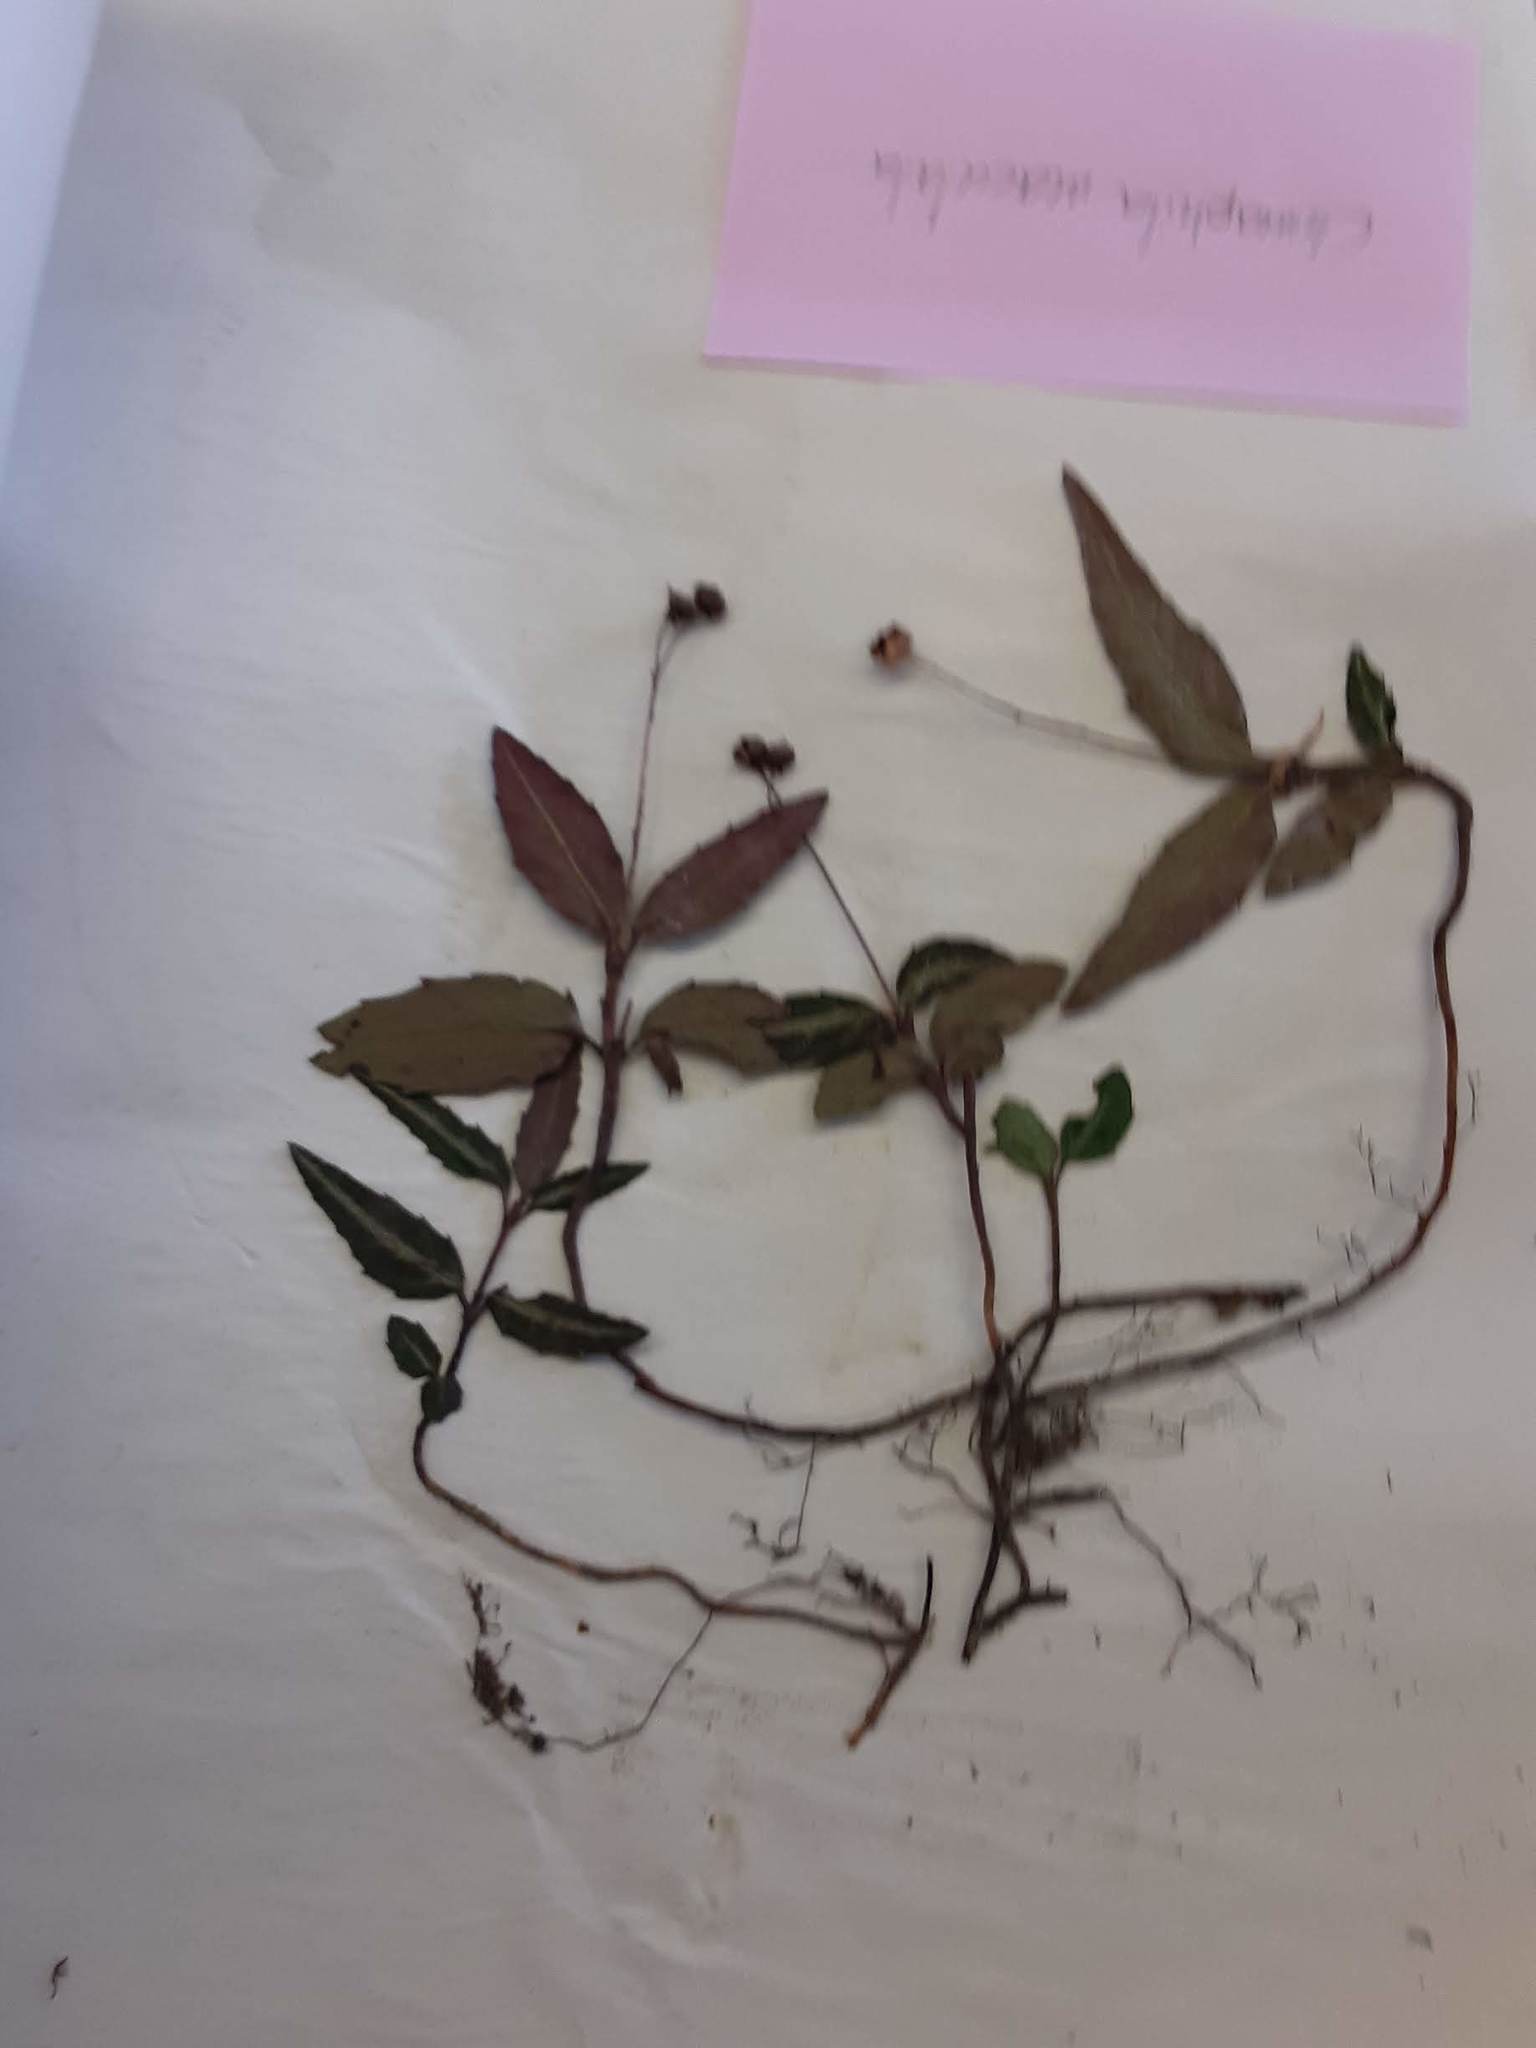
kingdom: Plantae
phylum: Tracheophyta
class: Magnoliopsida
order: Ericales
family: Ericaceae
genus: Chimaphila
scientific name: Chimaphila maculata
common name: Spotted pipsissewa
